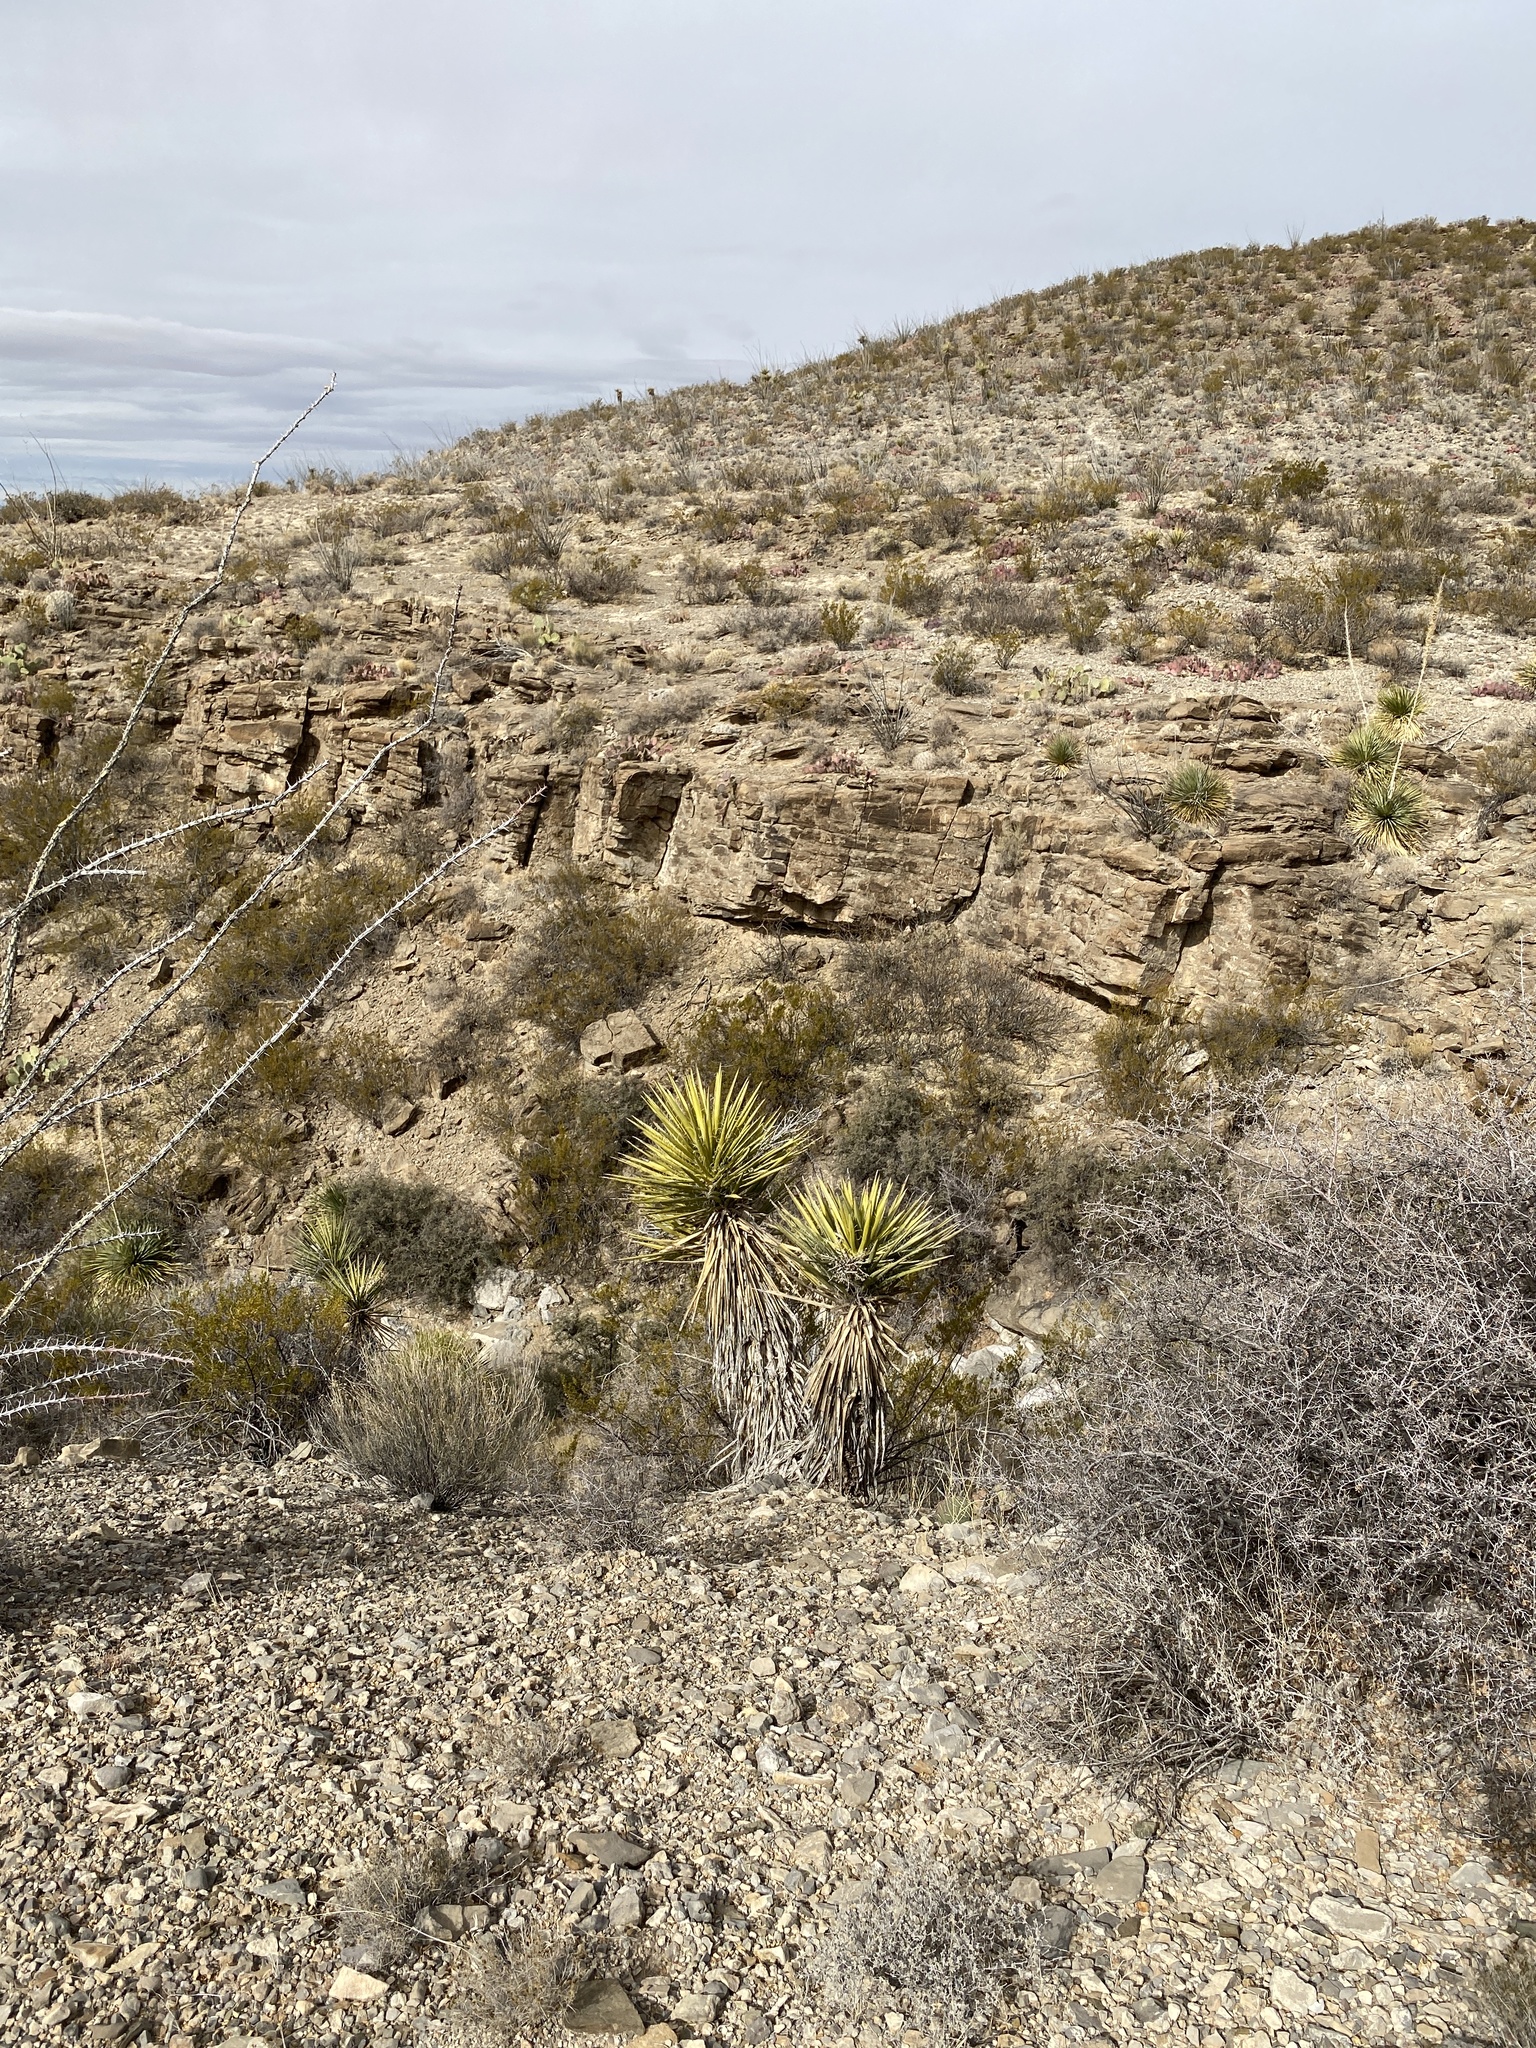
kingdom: Plantae
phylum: Tracheophyta
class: Liliopsida
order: Asparagales
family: Asparagaceae
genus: Yucca
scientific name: Yucca treculiana
